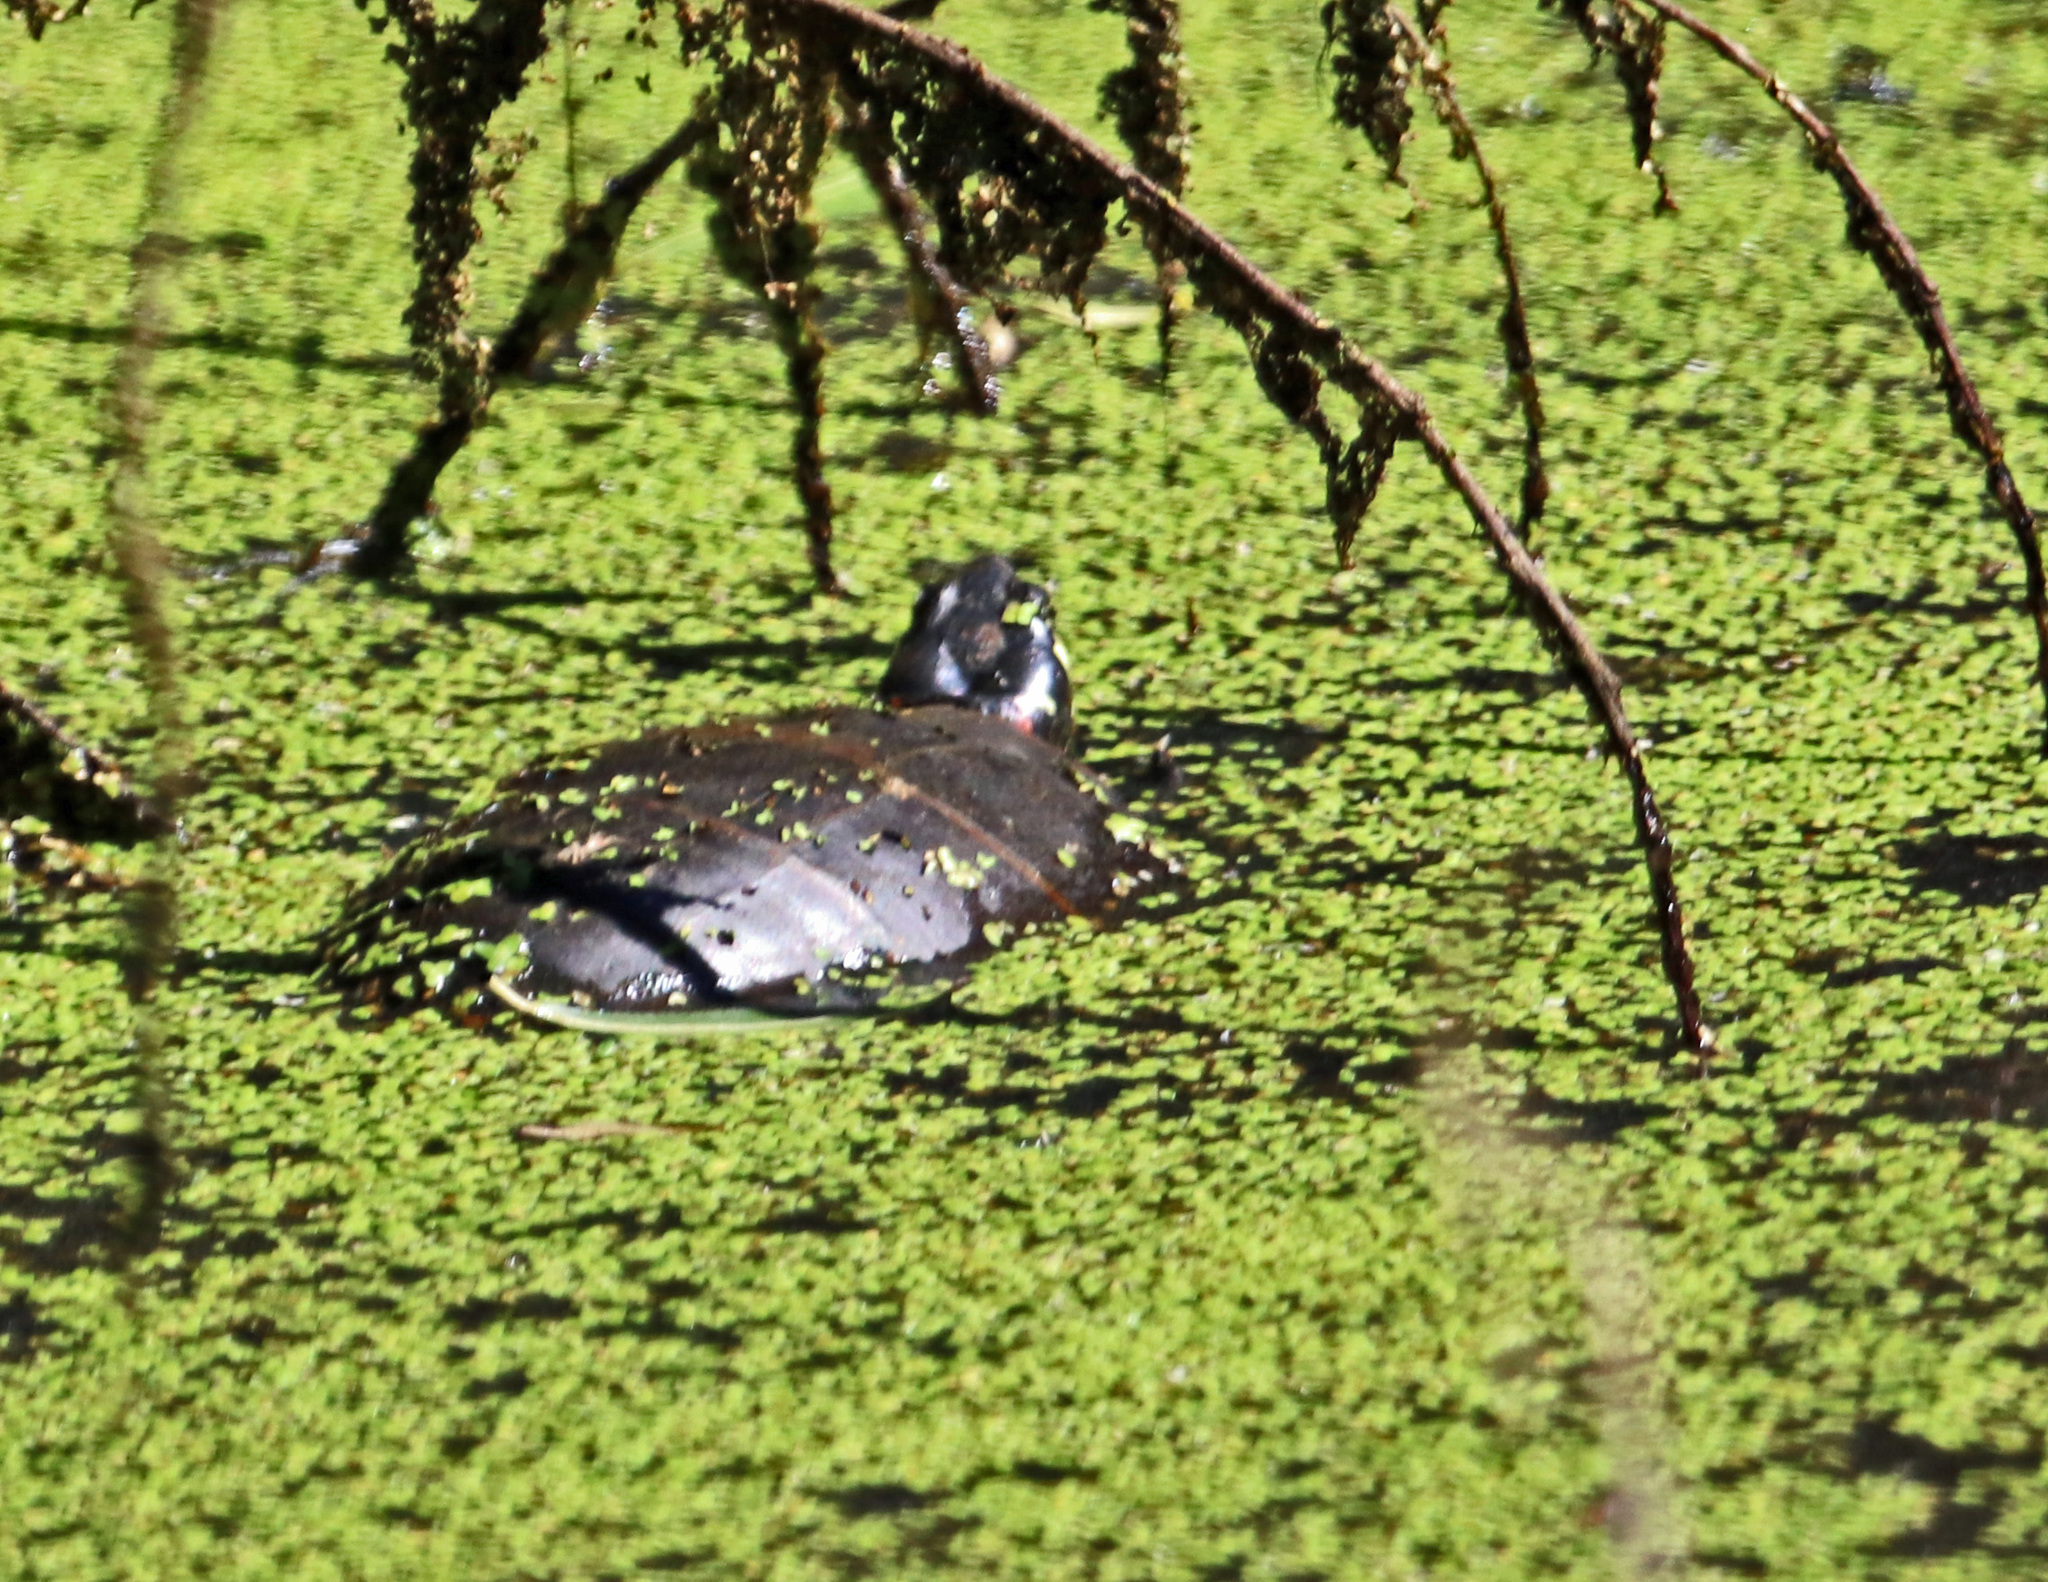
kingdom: Animalia
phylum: Chordata
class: Testudines
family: Emydidae
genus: Chrysemys
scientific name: Chrysemys picta
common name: Painted turtle
